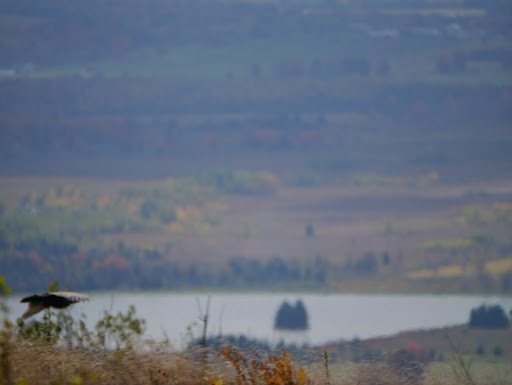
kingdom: Animalia
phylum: Chordata
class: Aves
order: Galliformes
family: Phasianidae
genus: Meleagris
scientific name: Meleagris gallopavo
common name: Wild turkey
